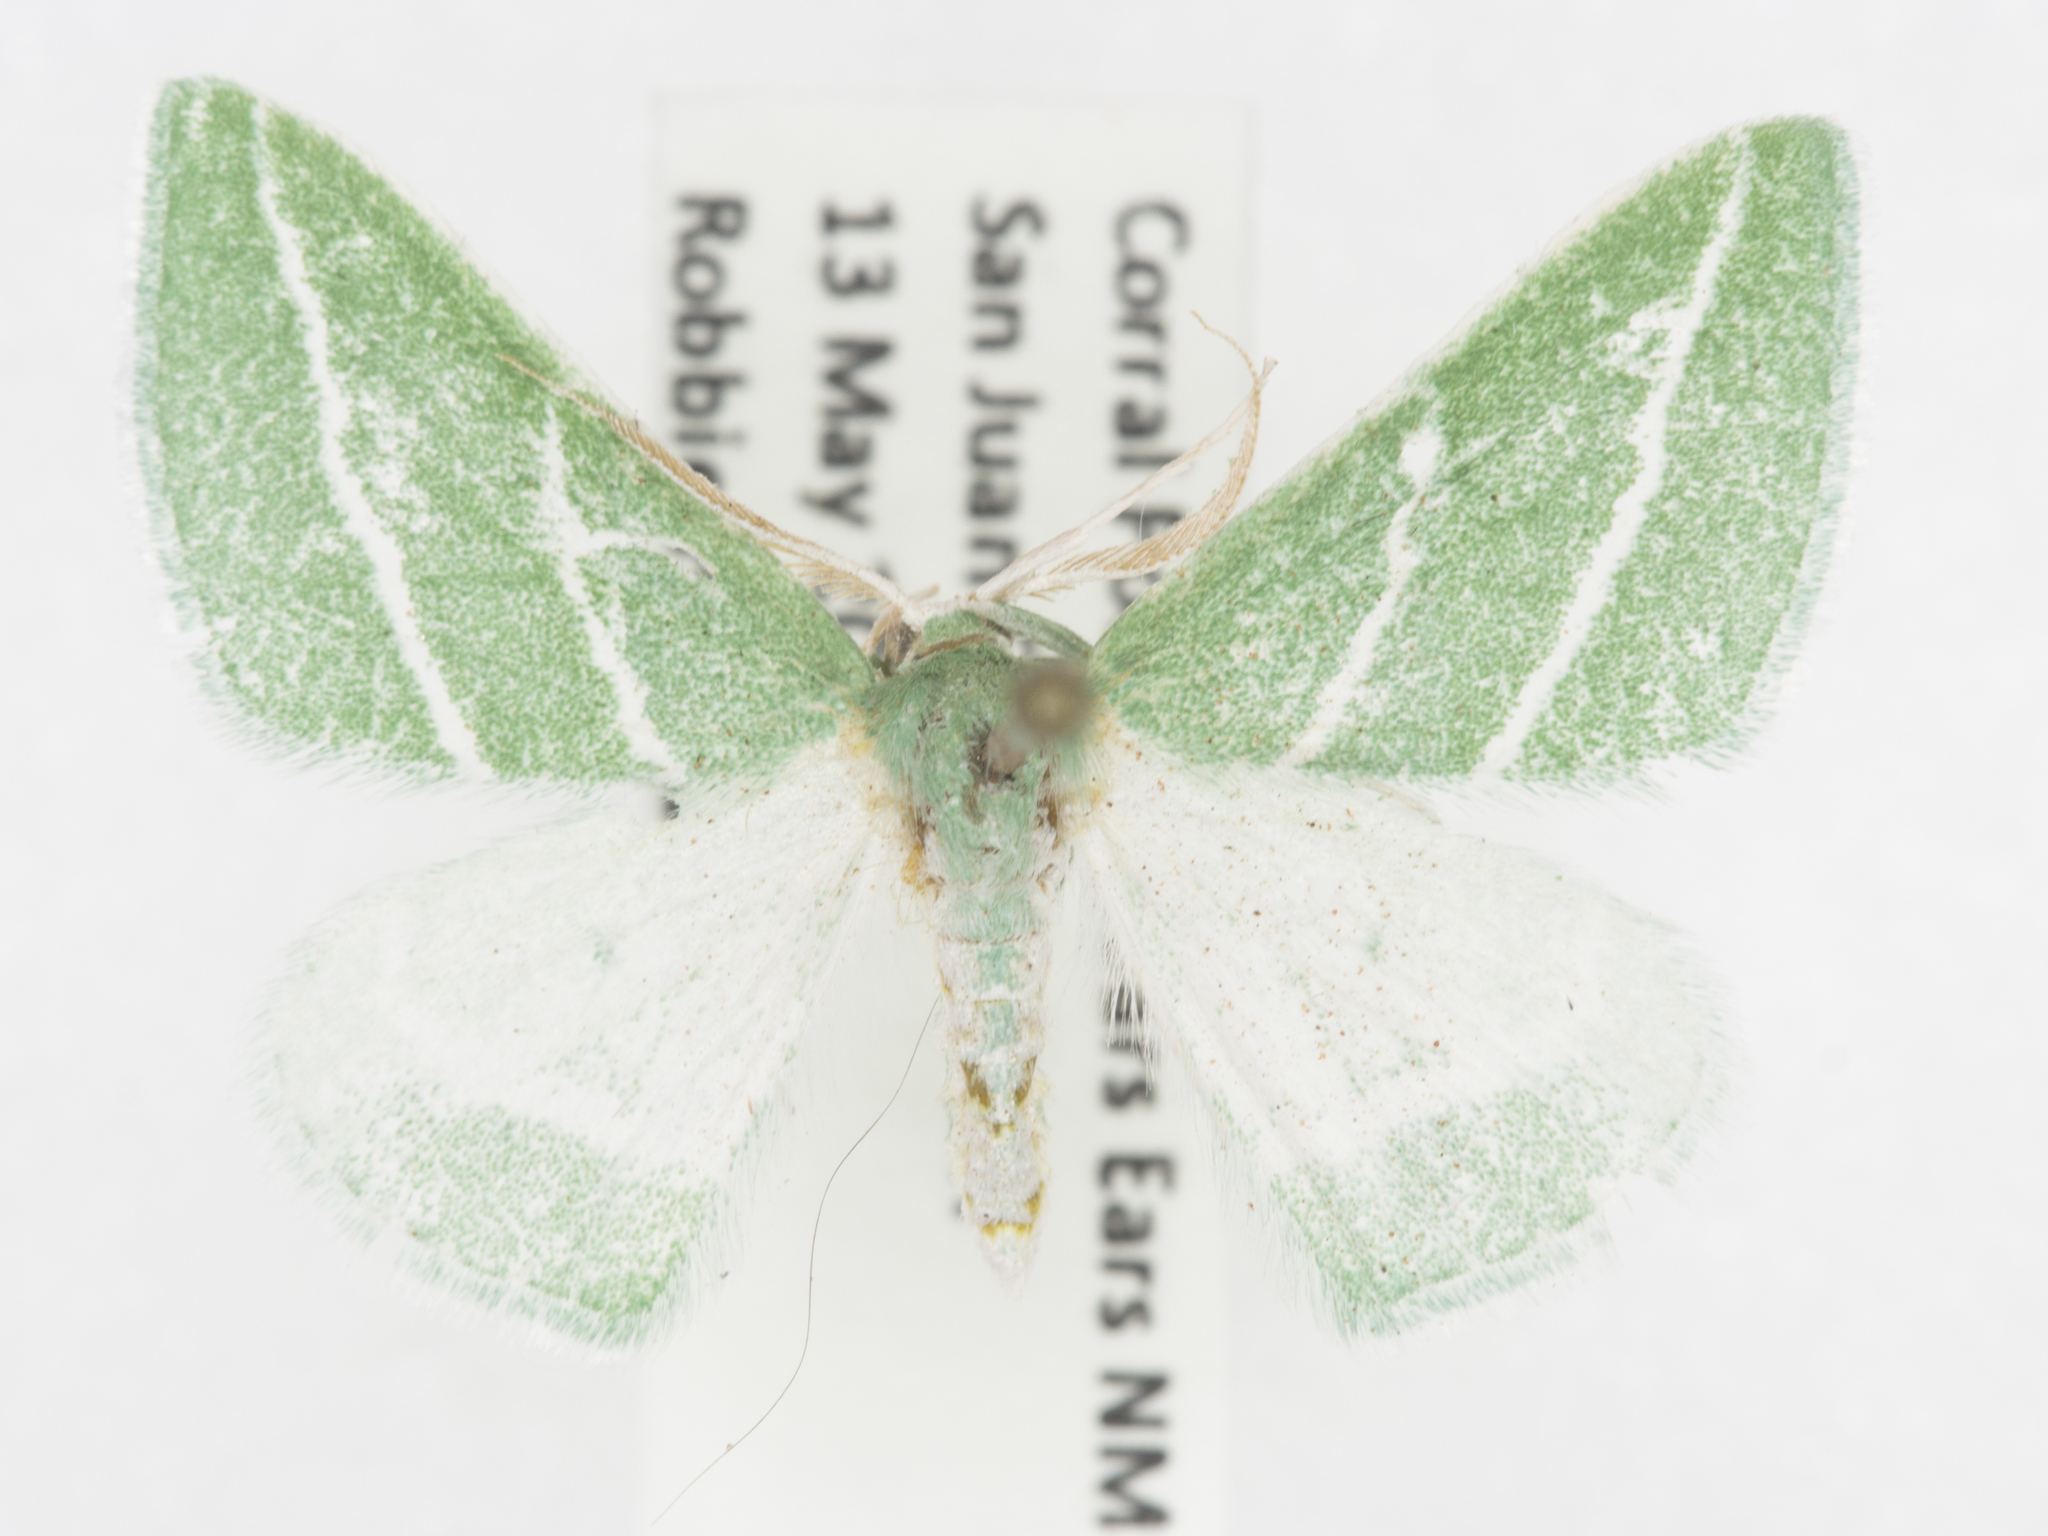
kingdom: Animalia
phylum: Arthropoda
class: Insecta
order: Lepidoptera
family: Geometridae
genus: Synchlora
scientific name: Synchlora bistriaria
